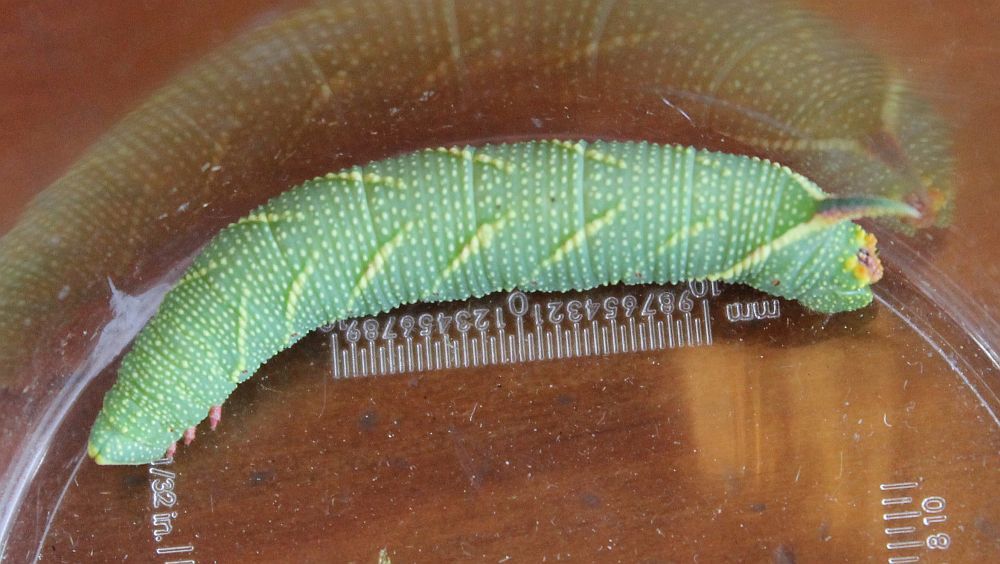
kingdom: Animalia
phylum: Arthropoda
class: Insecta
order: Lepidoptera
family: Sphingidae
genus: Mimas
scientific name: Mimas tiliae
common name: Lime hawk-moth
